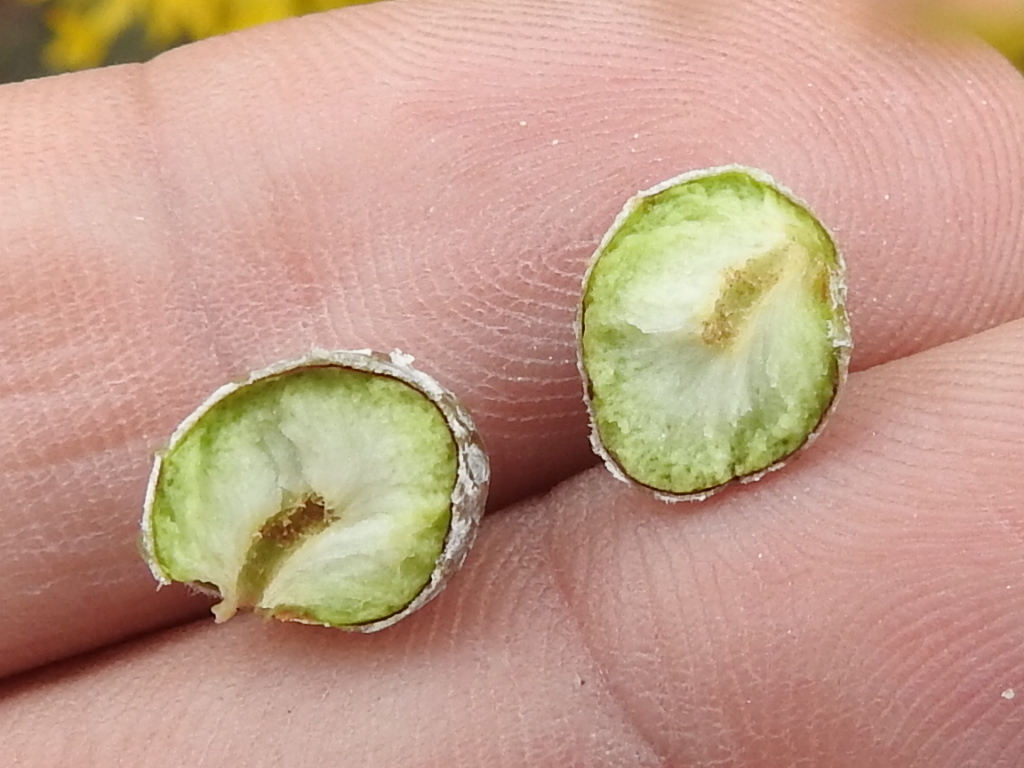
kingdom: Animalia
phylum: Arthropoda
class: Insecta
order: Diptera
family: Tephritidae
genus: Aciurina
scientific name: Aciurina trixa
